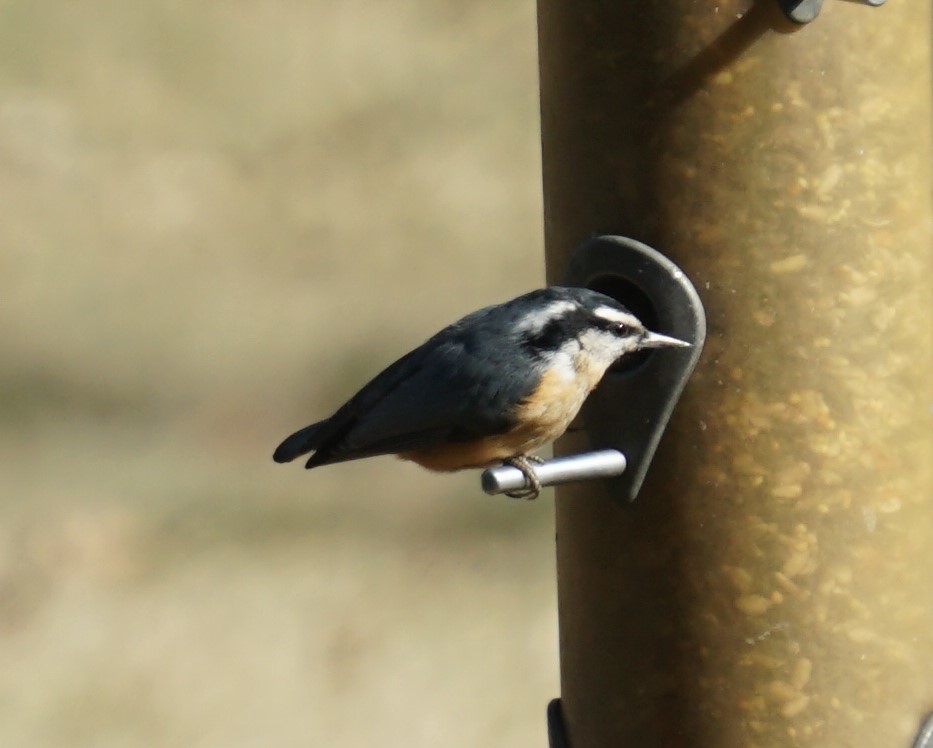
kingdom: Animalia
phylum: Chordata
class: Aves
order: Passeriformes
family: Sittidae
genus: Sitta
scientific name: Sitta canadensis
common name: Red-breasted nuthatch
